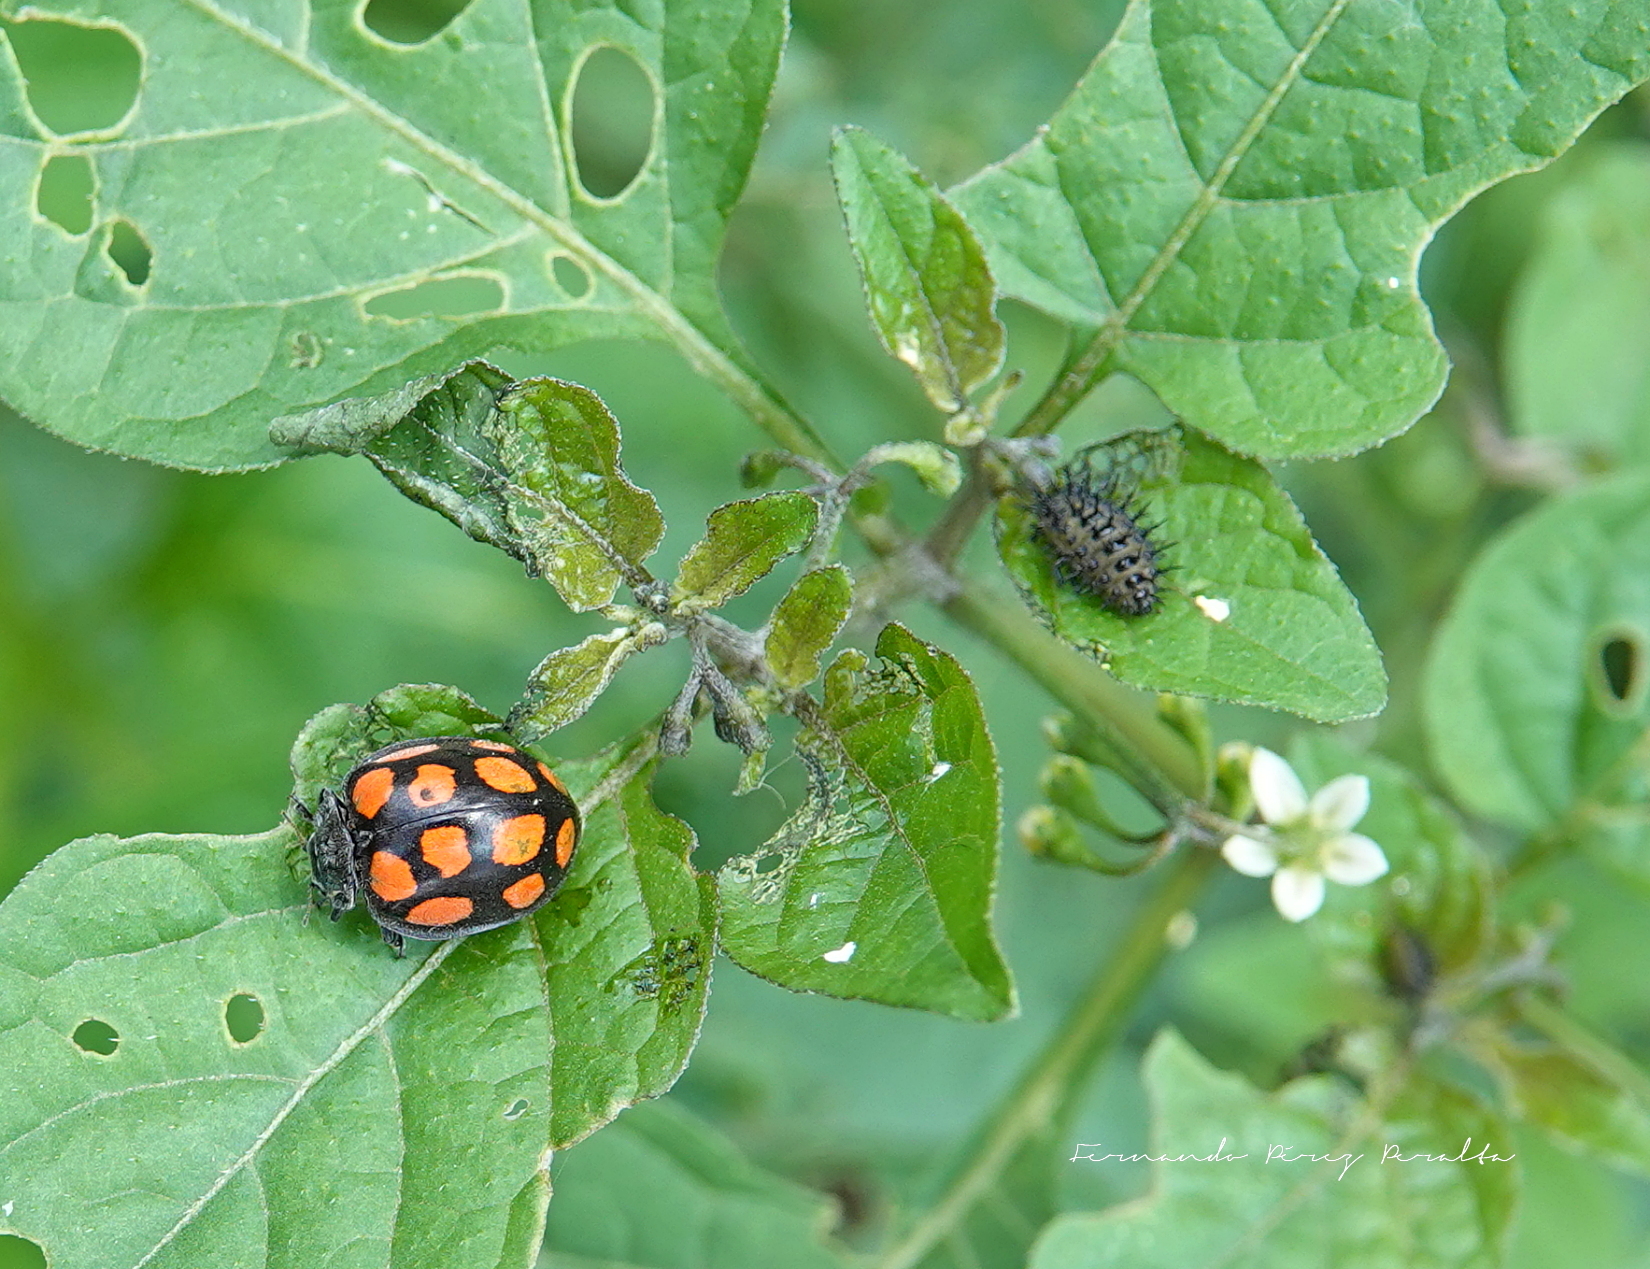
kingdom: Animalia
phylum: Arthropoda
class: Insecta
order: Coleoptera
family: Coccinellidae
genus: Epilachna
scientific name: Epilachna
